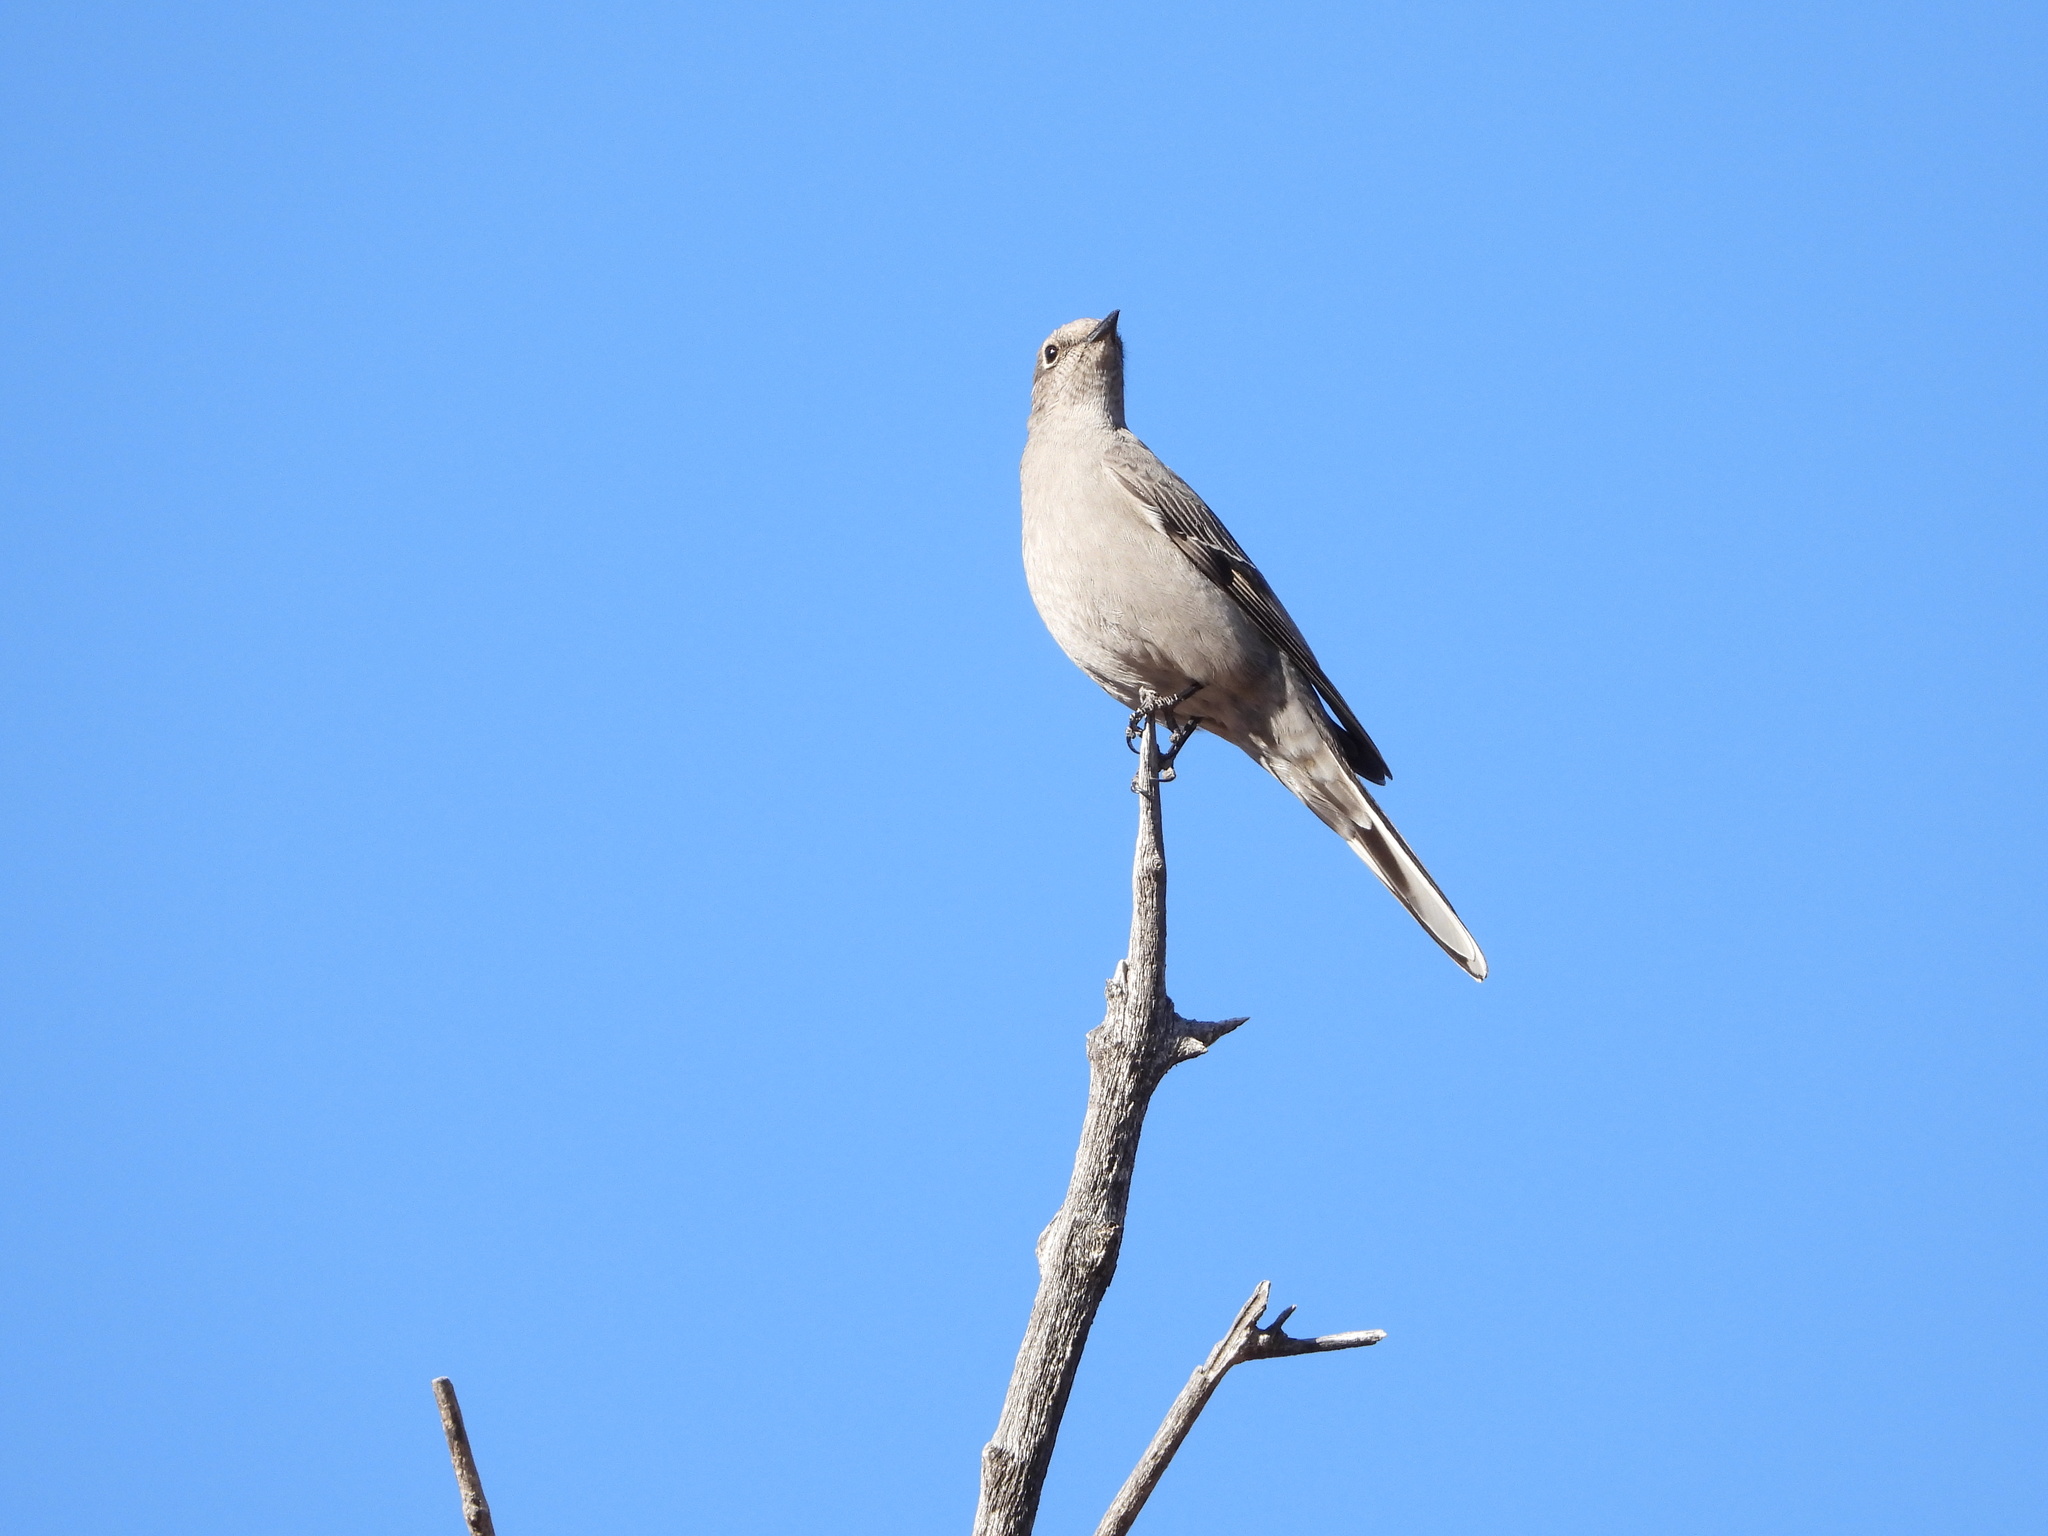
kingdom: Animalia
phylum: Chordata
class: Aves
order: Passeriformes
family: Turdidae
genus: Myadestes
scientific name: Myadestes townsendi
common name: Townsend's solitaire
